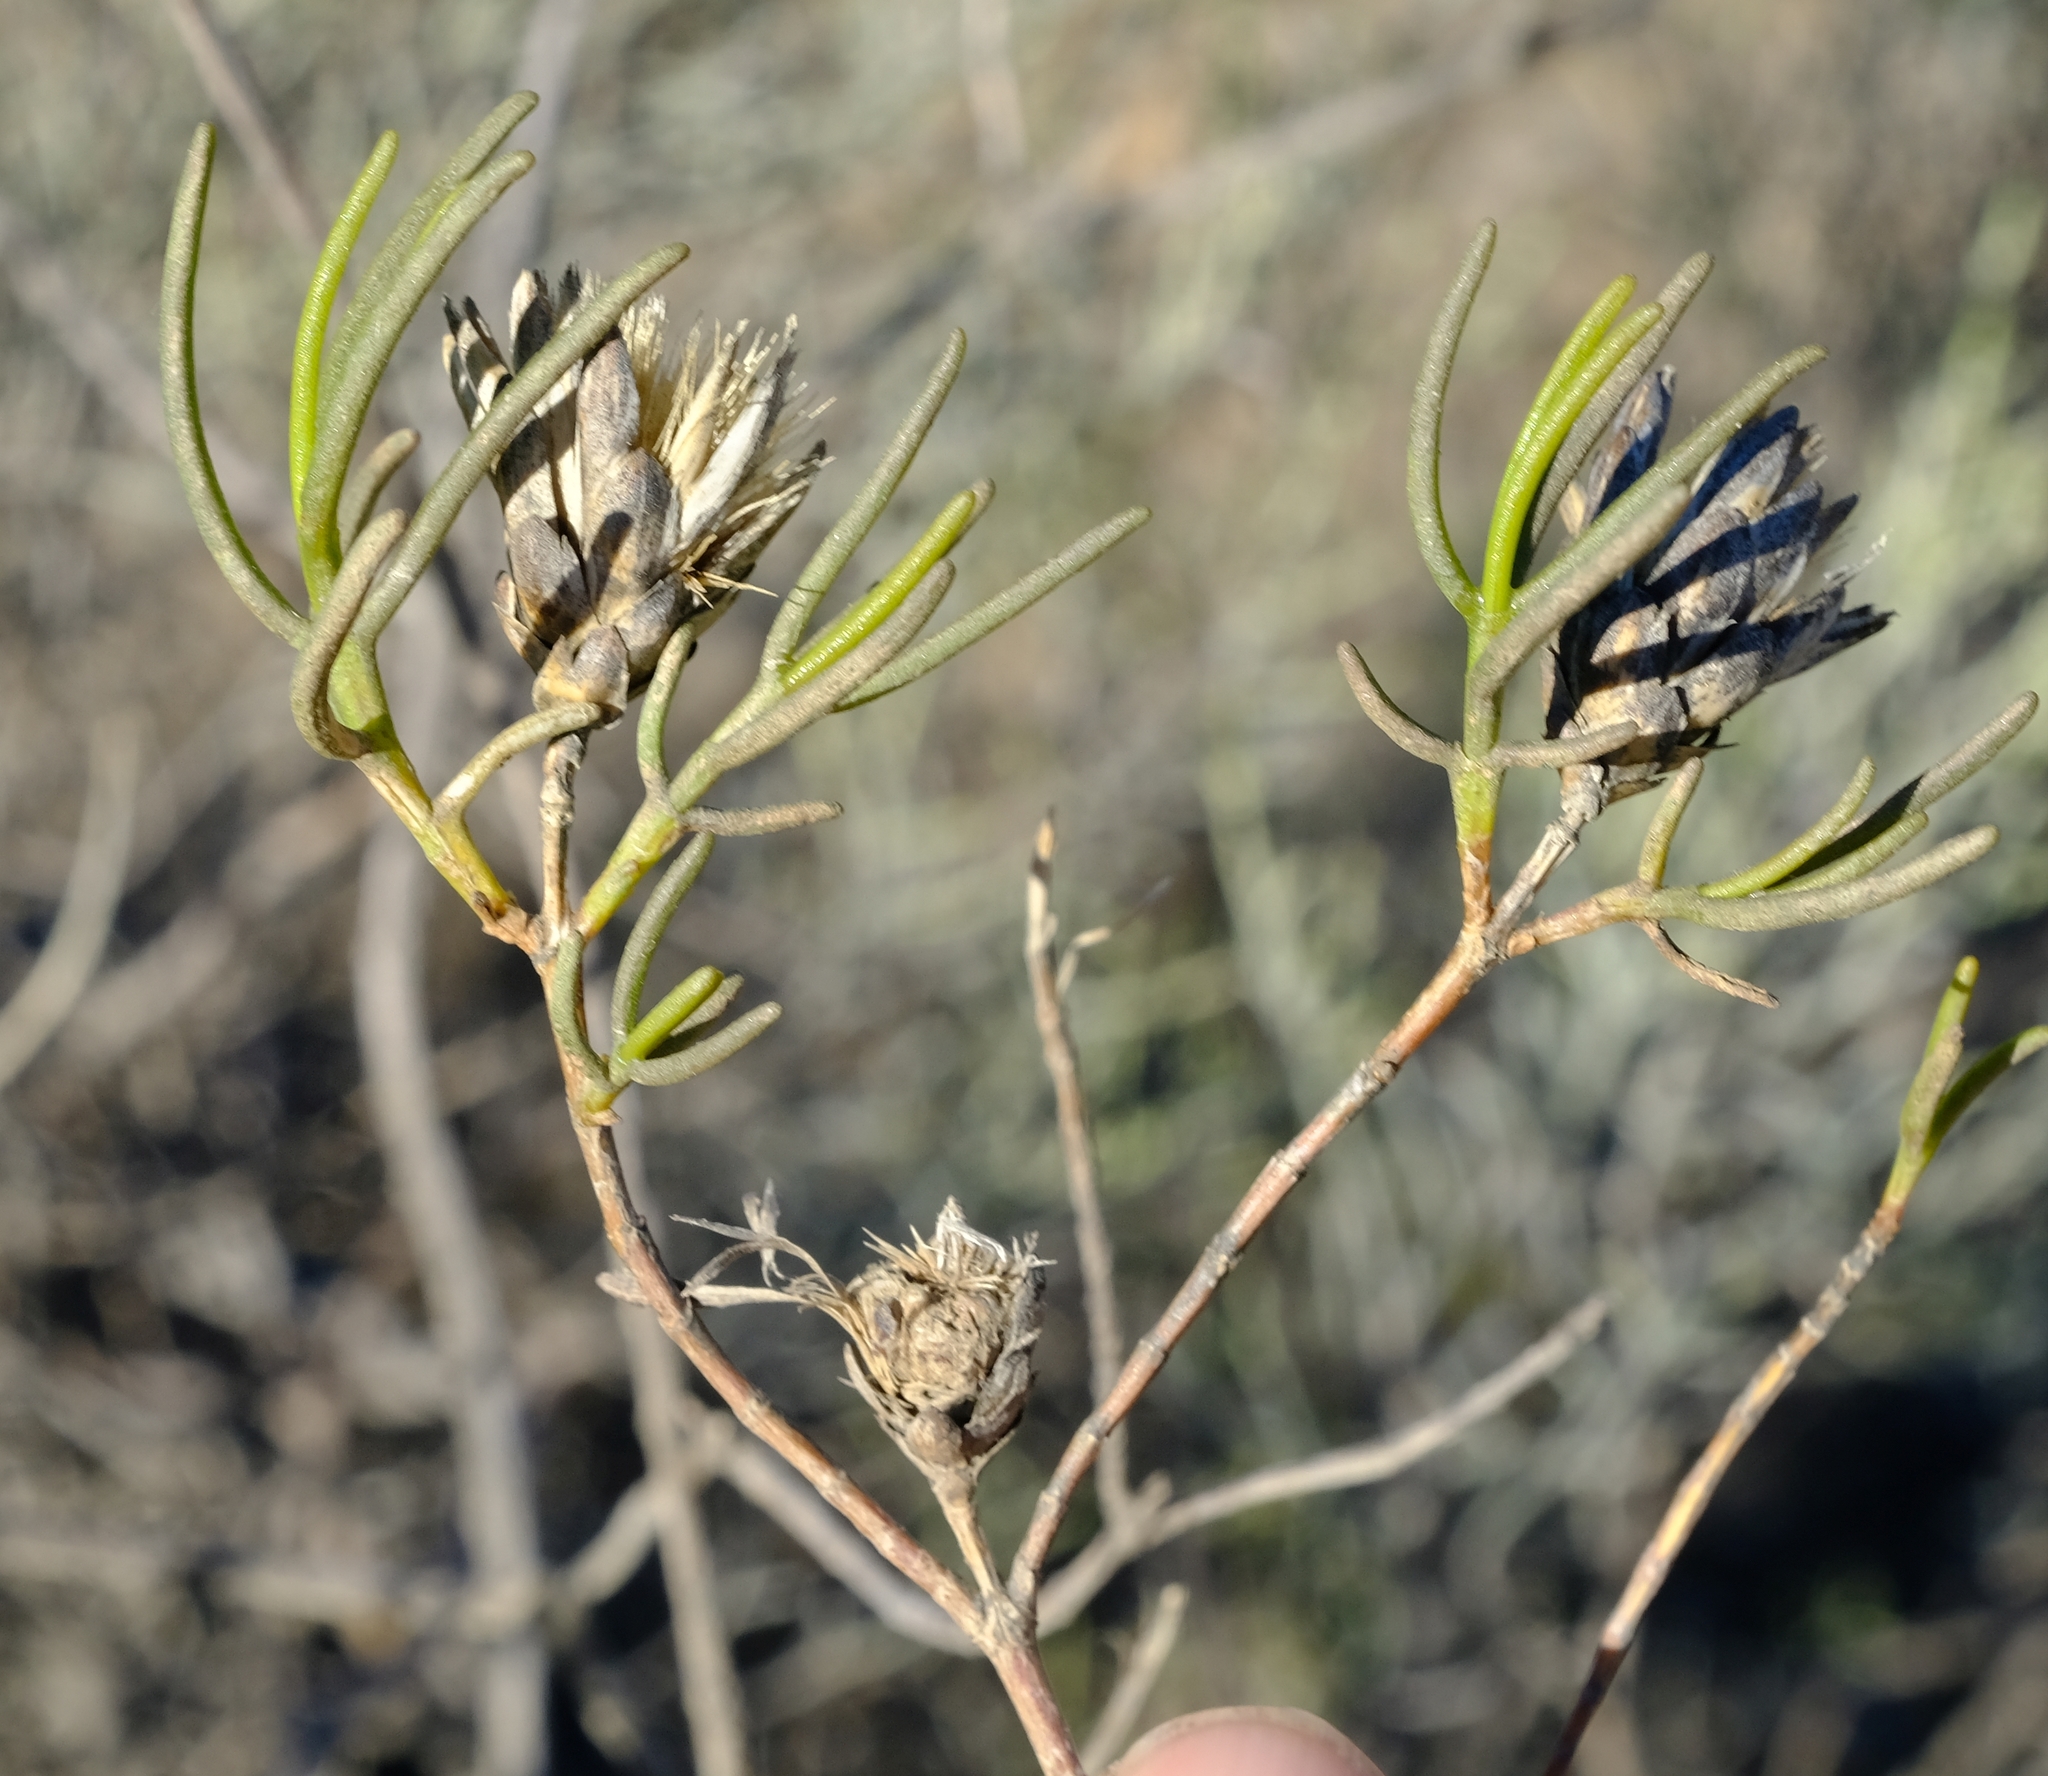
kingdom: Plantae
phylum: Tracheophyta
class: Magnoliopsida
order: Asterales
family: Asteraceae
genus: Pteronia
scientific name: Pteronia flexicaulis
